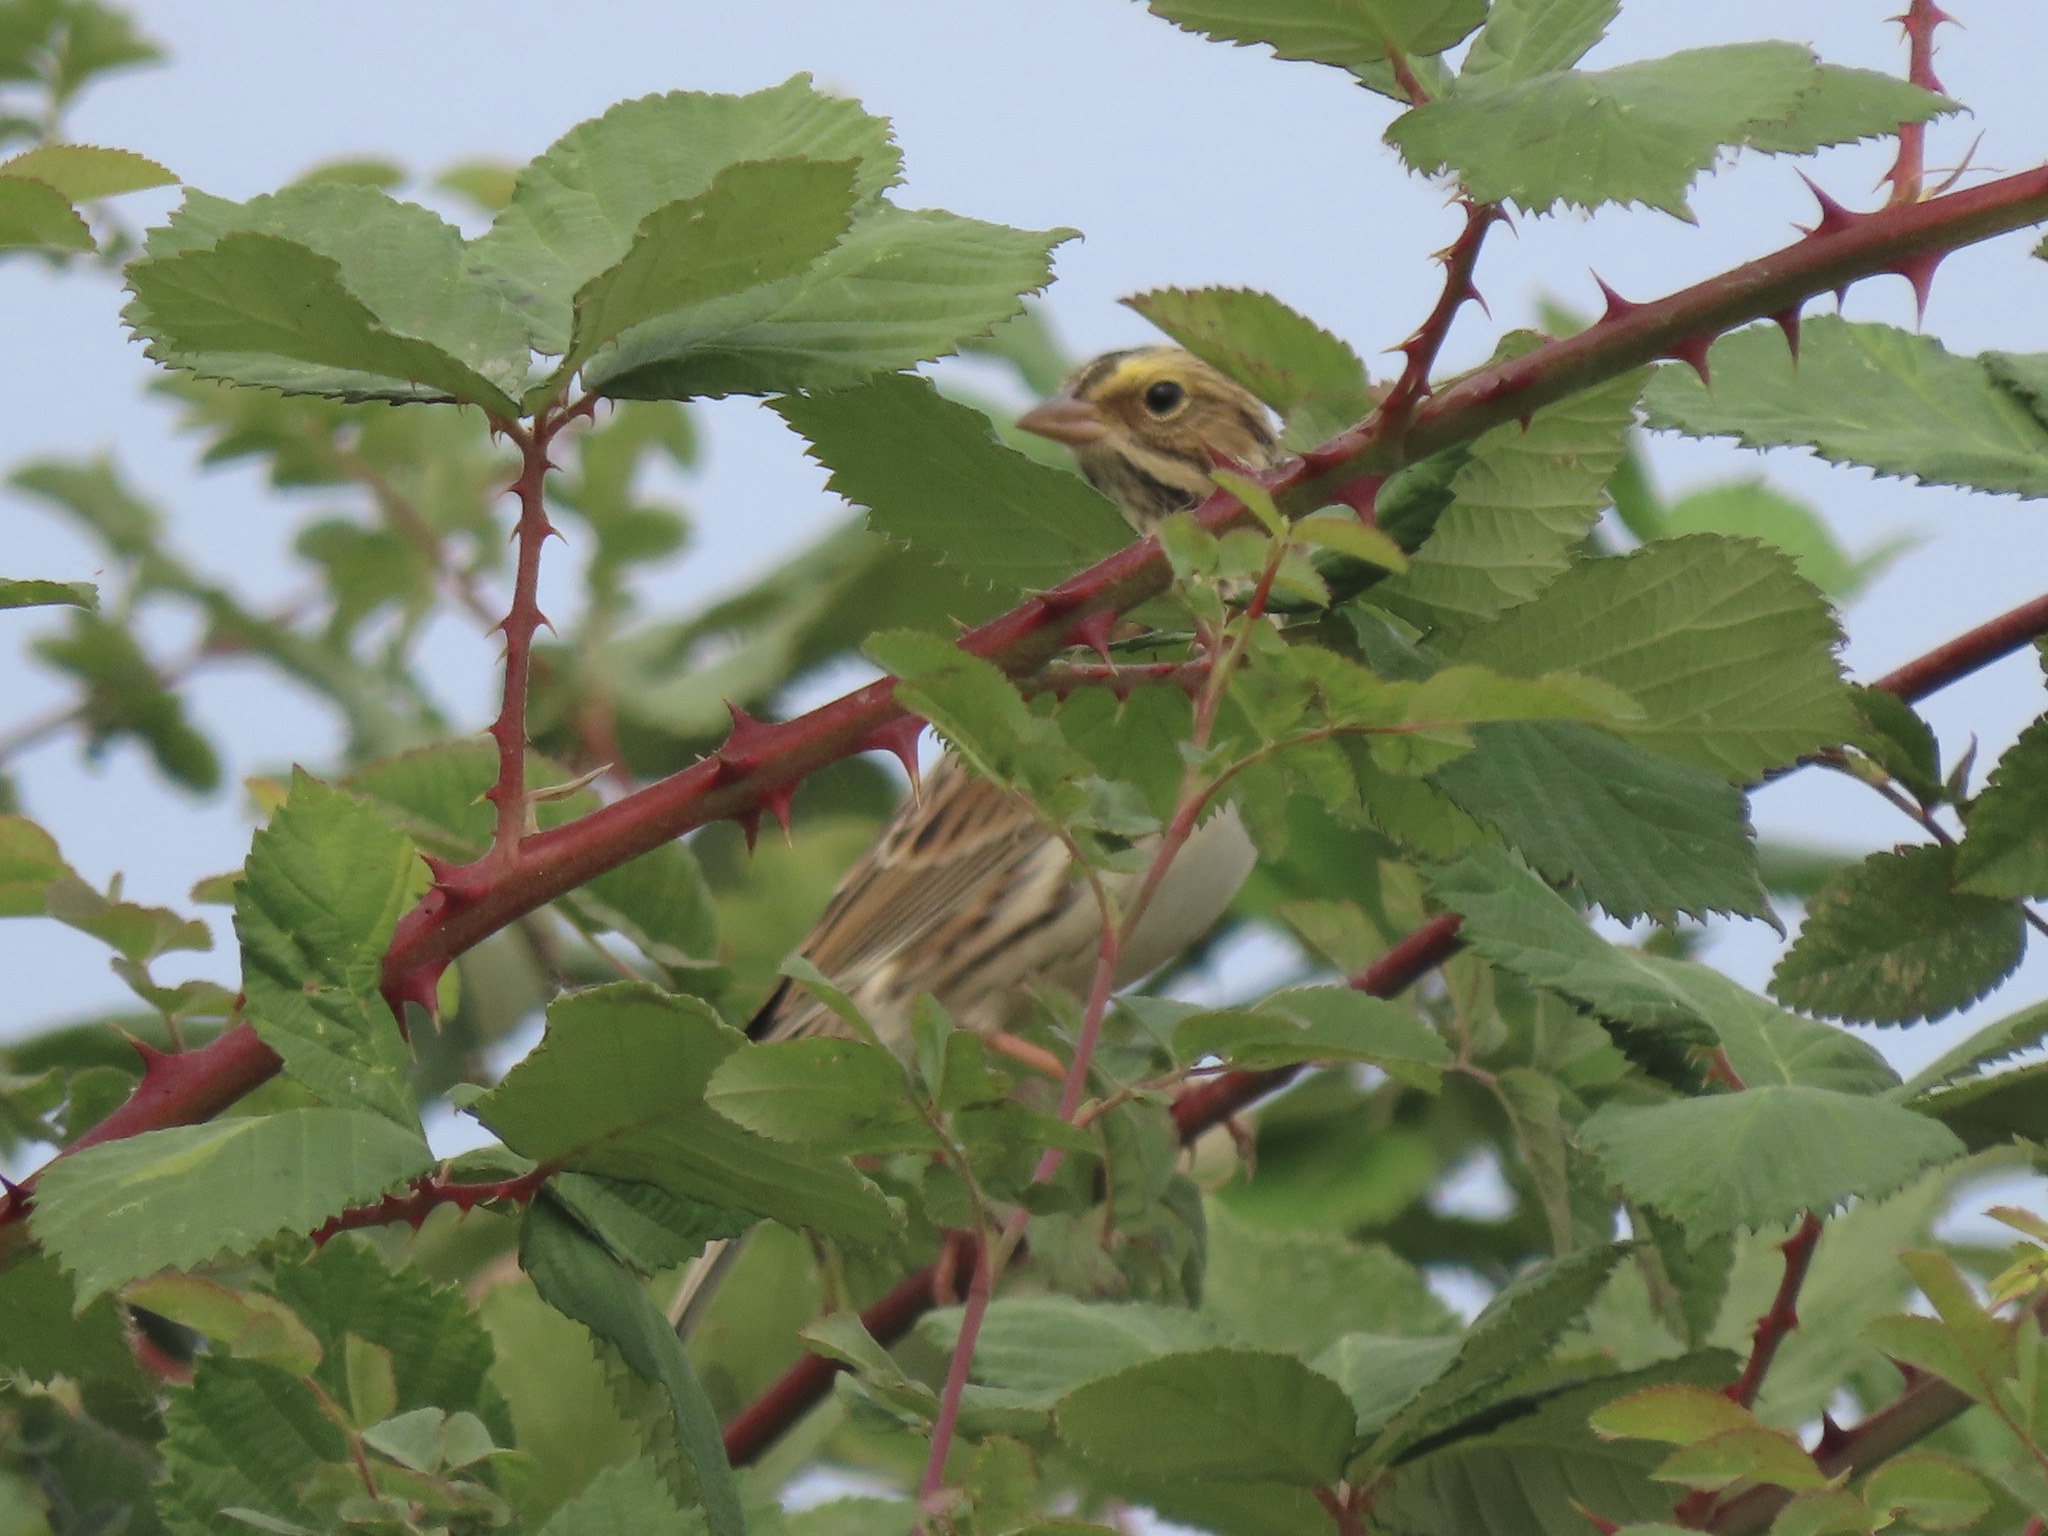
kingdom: Animalia
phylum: Chordata
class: Aves
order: Passeriformes
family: Passerellidae
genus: Passerculus
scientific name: Passerculus sandwichensis
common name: Savannah sparrow
